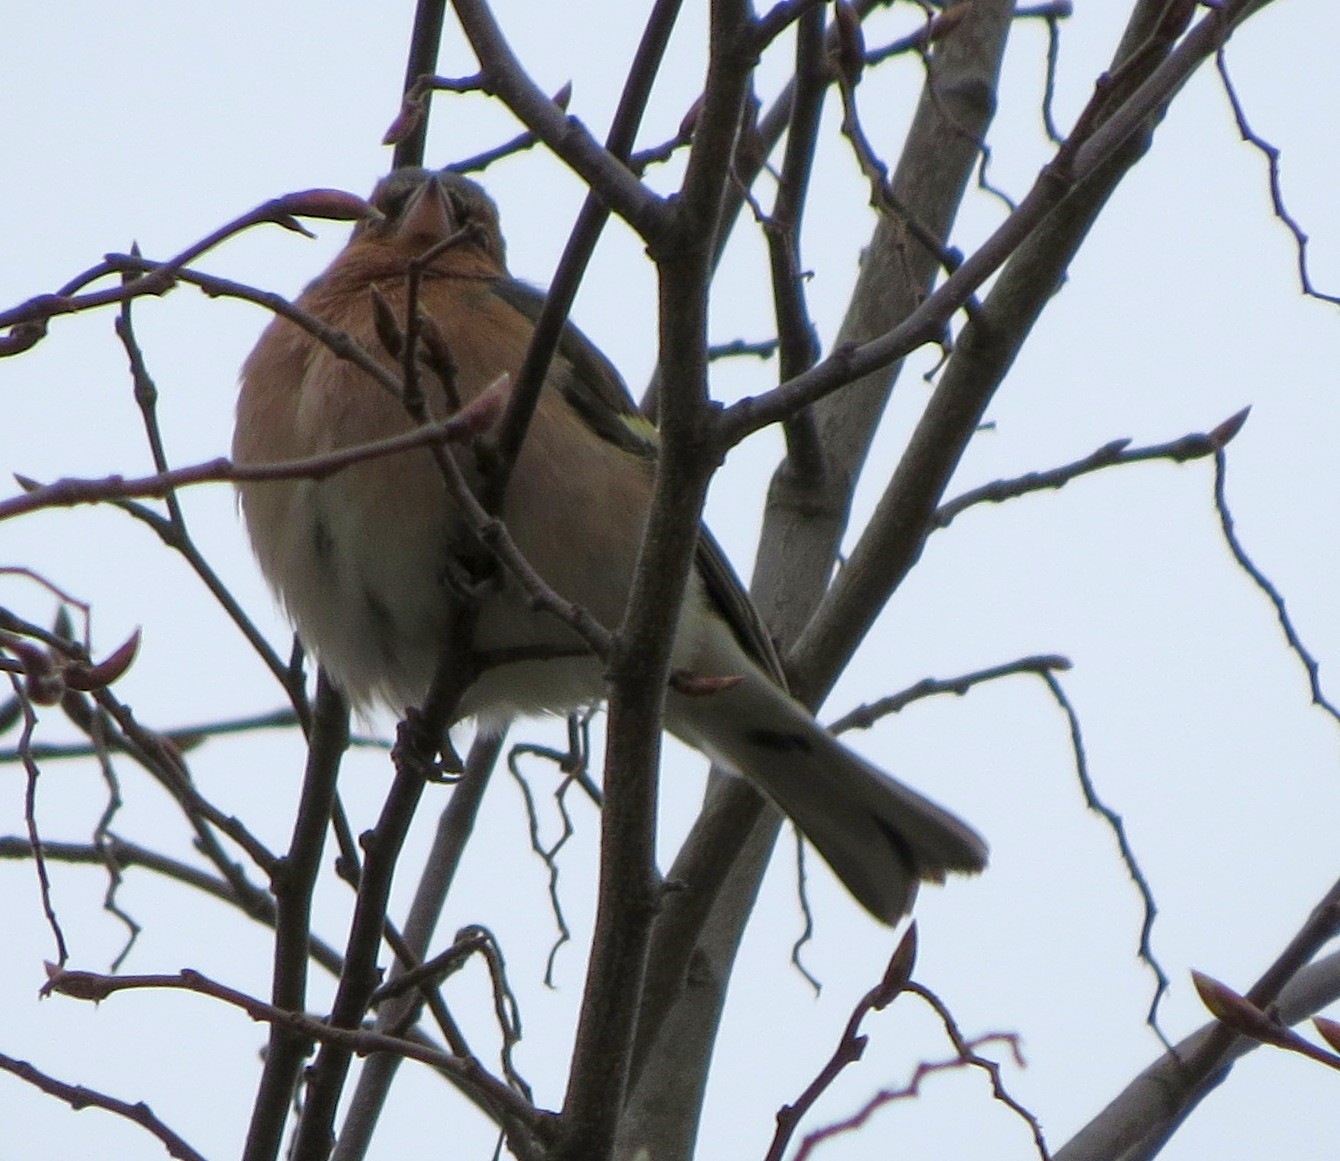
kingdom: Animalia
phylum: Chordata
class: Aves
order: Passeriformes
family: Fringillidae
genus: Fringilla
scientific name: Fringilla coelebs
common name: Common chaffinch
